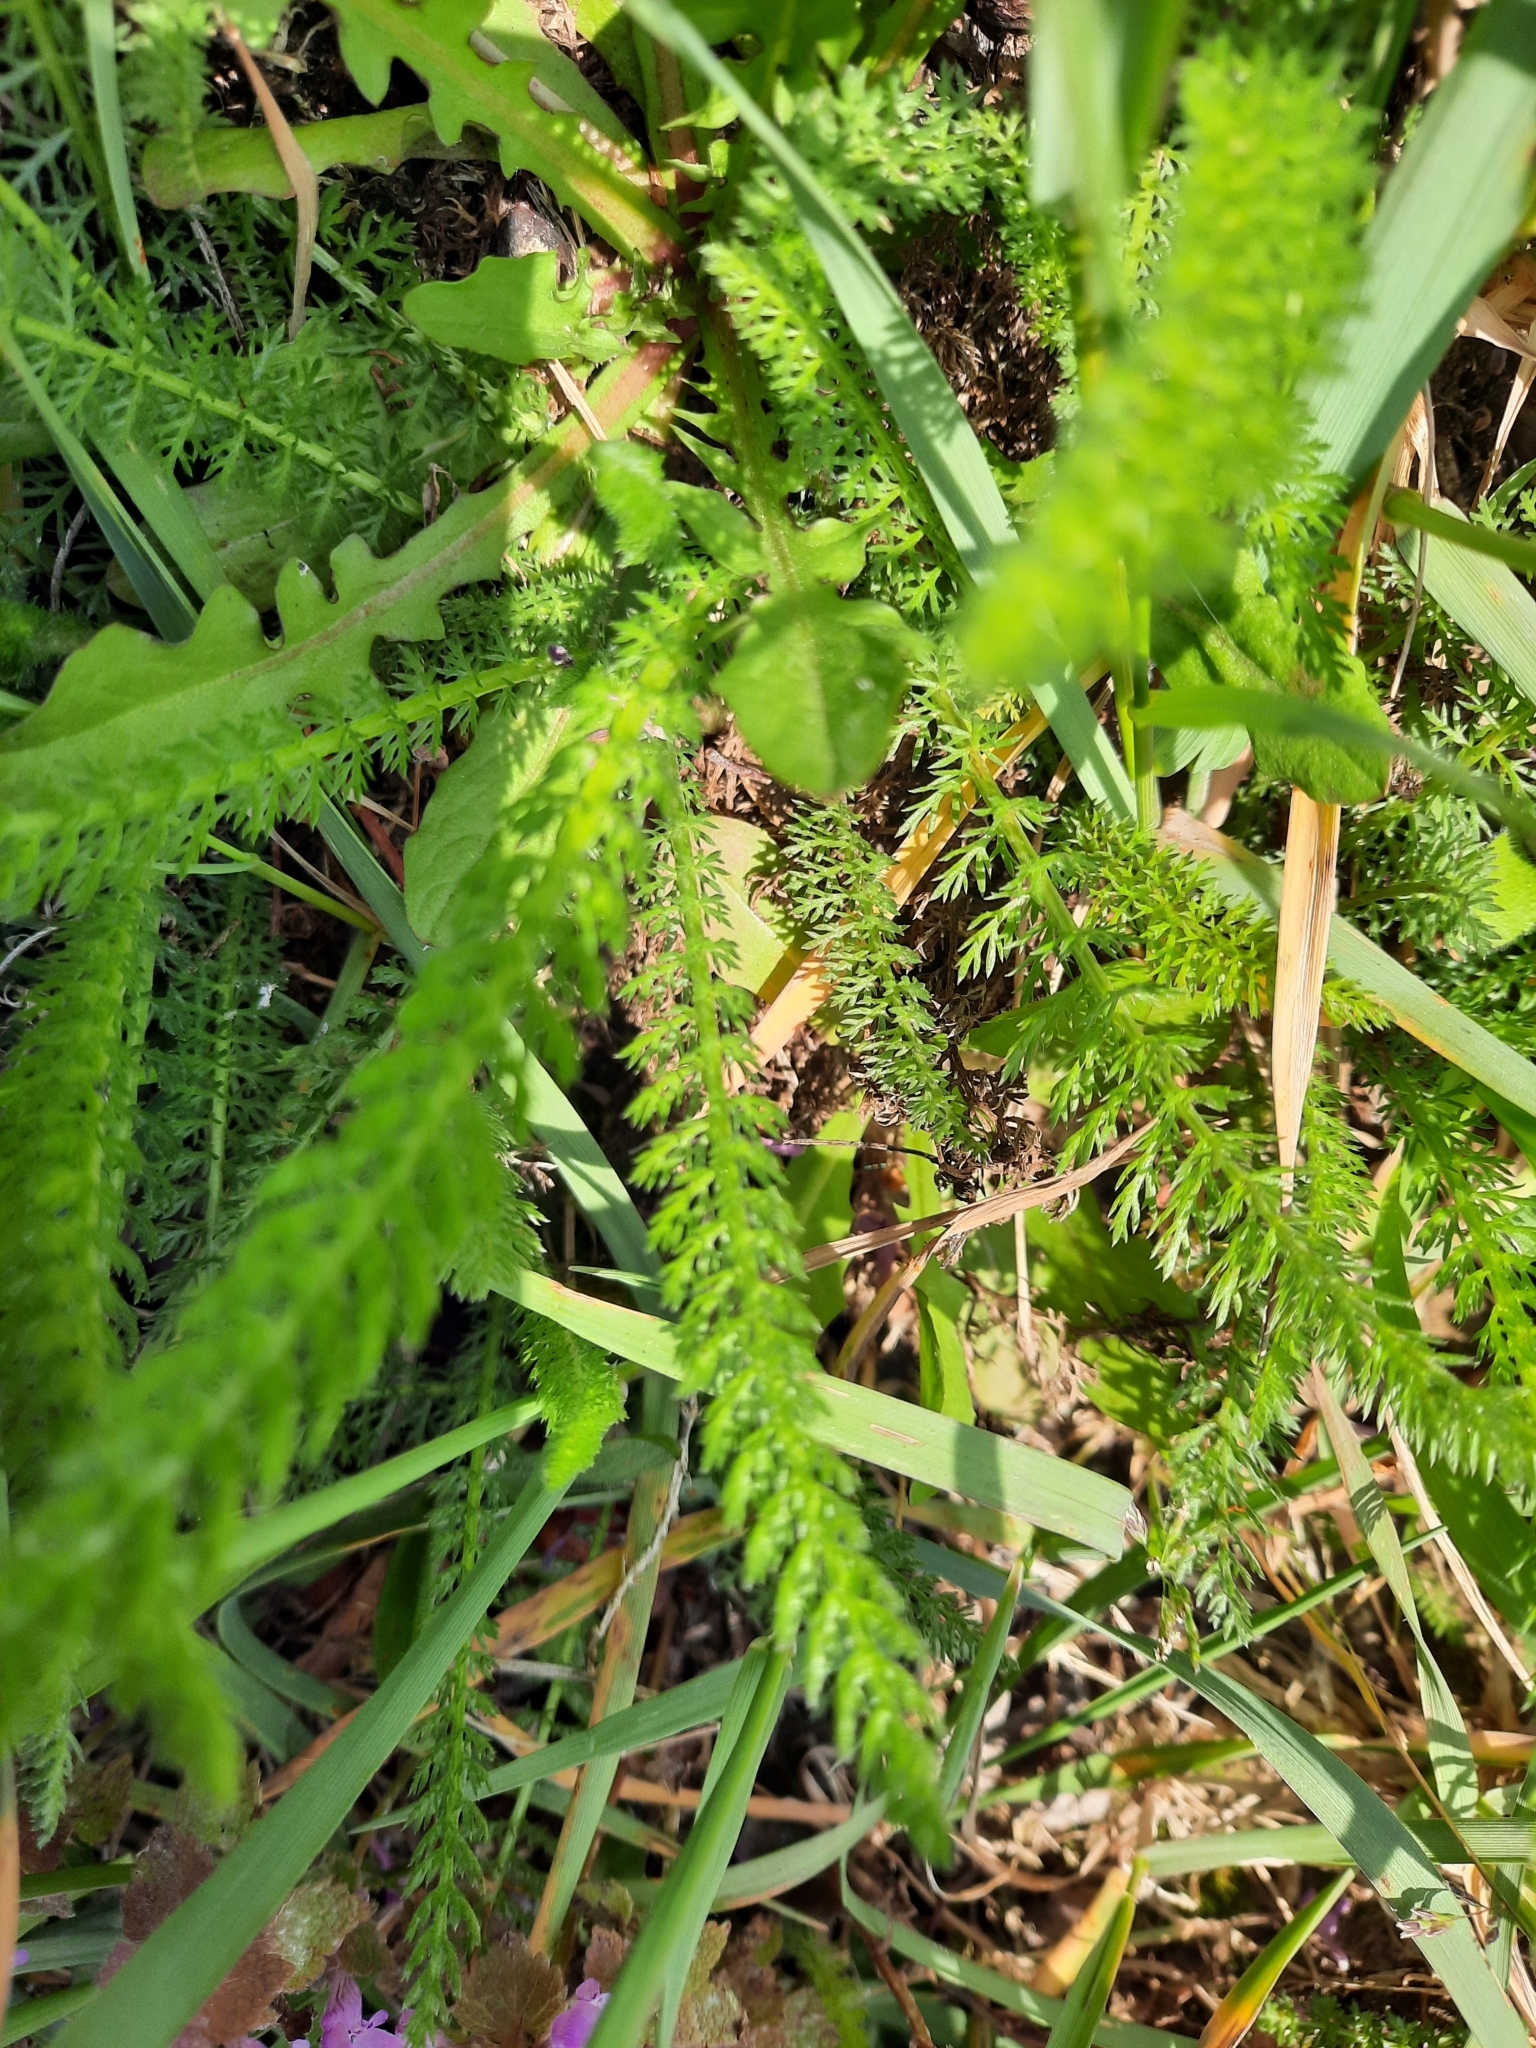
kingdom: Plantae
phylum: Tracheophyta
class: Magnoliopsida
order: Asterales
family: Asteraceae
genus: Achillea
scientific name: Achillea millefolium
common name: Yarrow
